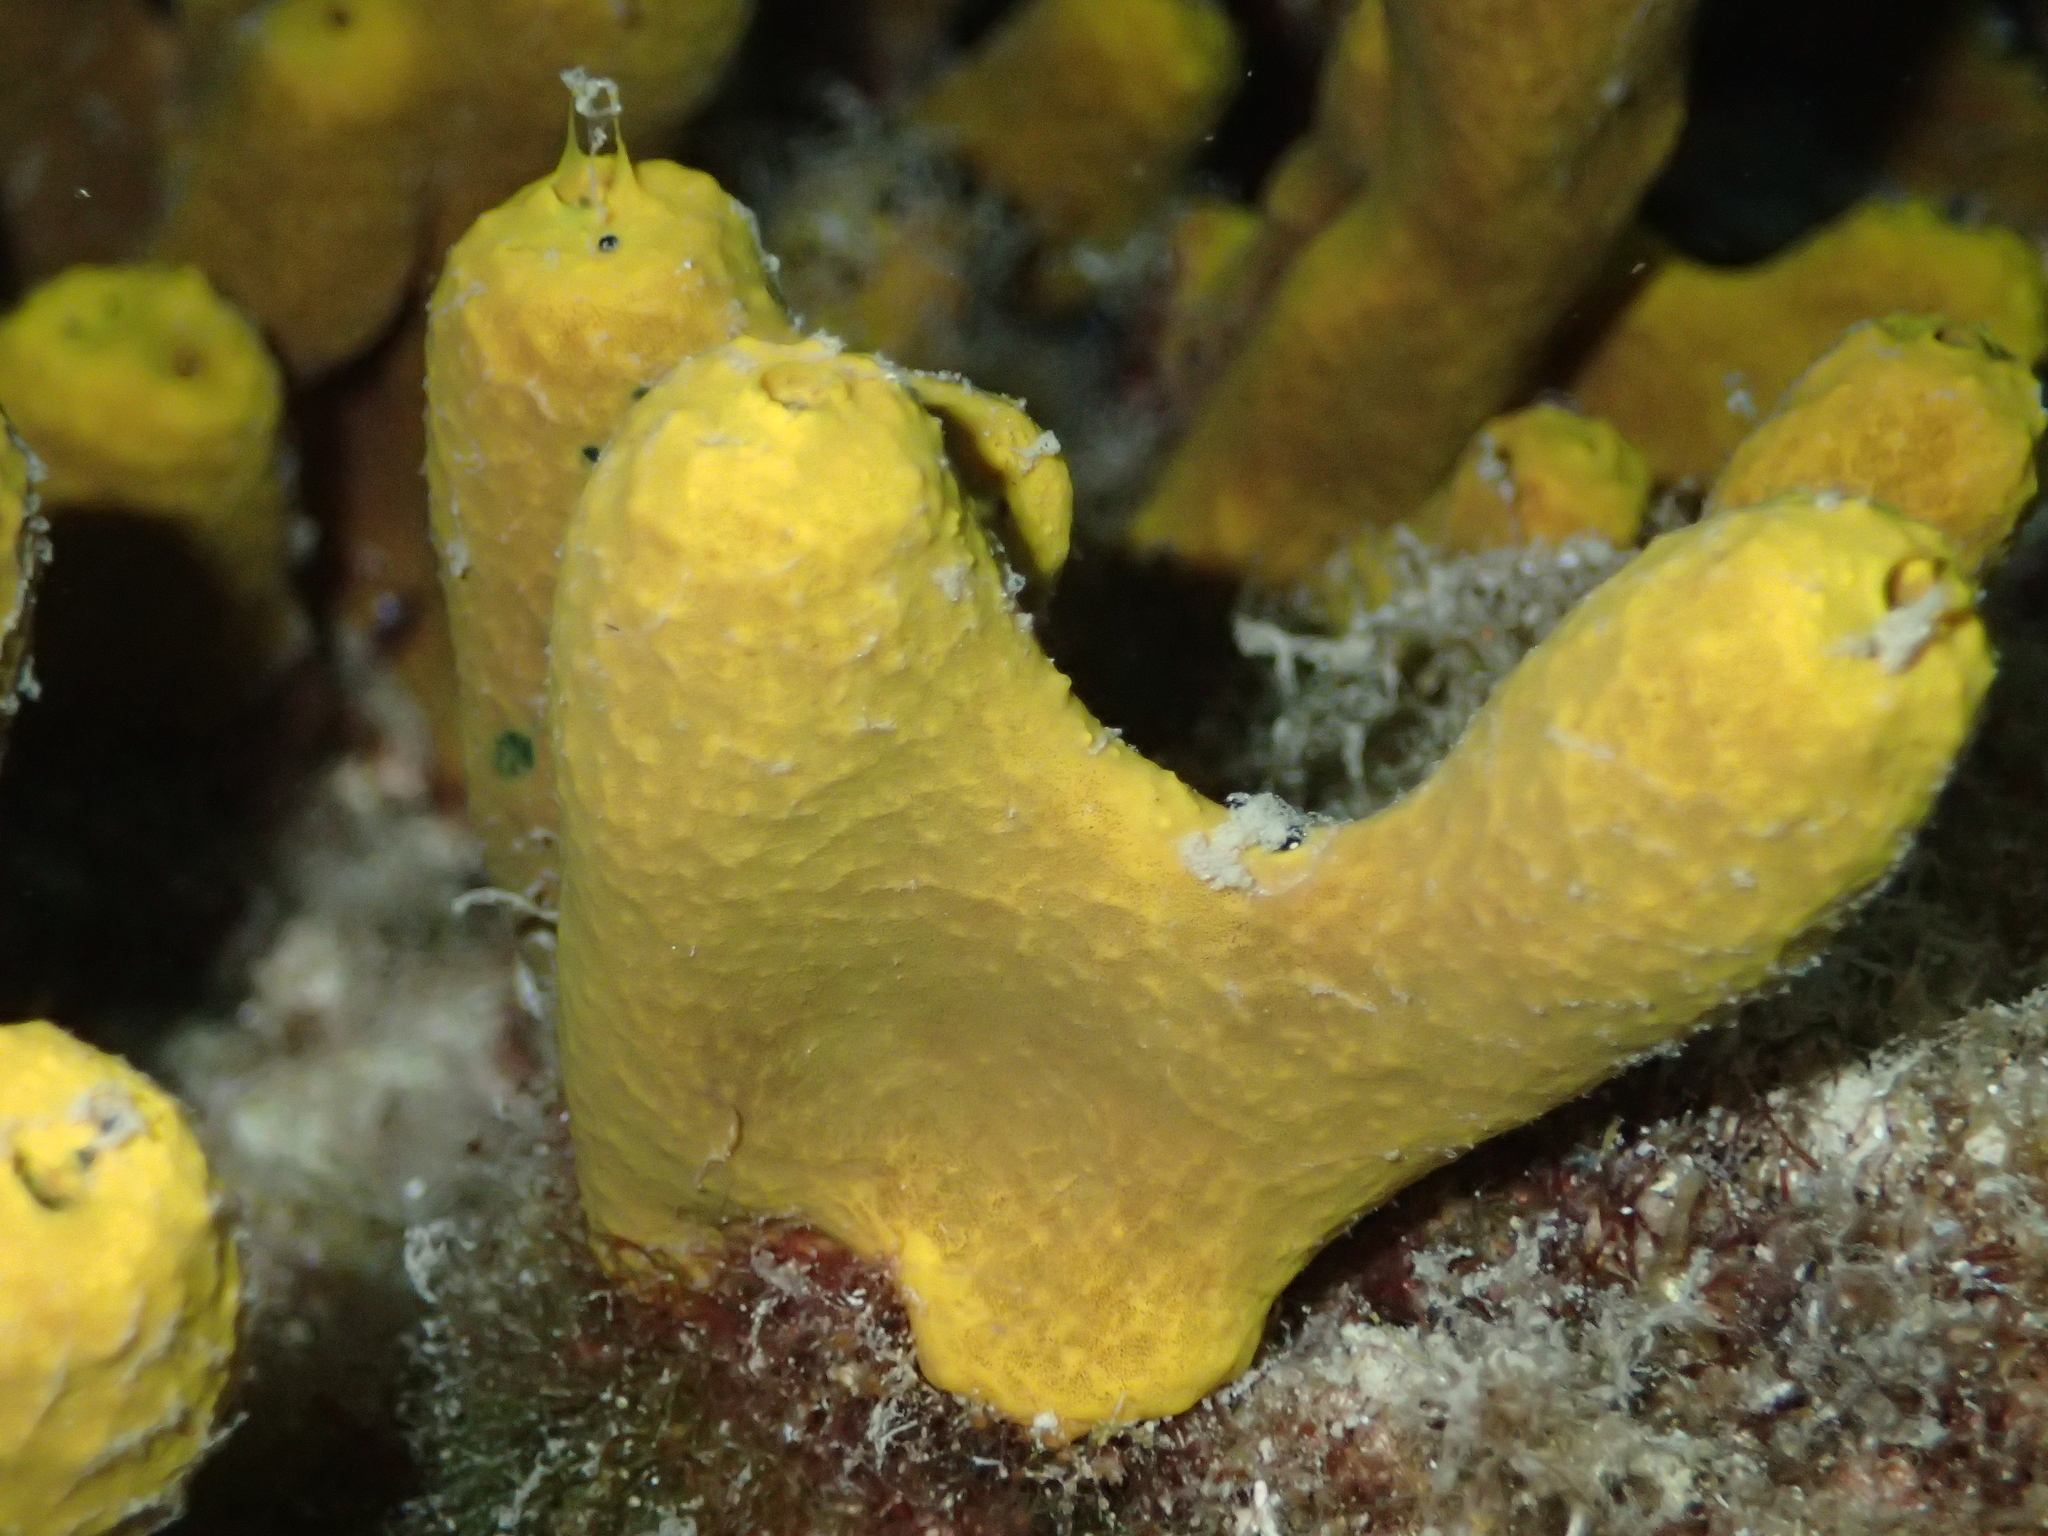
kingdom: Animalia
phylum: Porifera
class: Demospongiae
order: Verongiida
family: Aplysinidae
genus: Aplysina
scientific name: Aplysina aerophoba
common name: Aureate sponge
